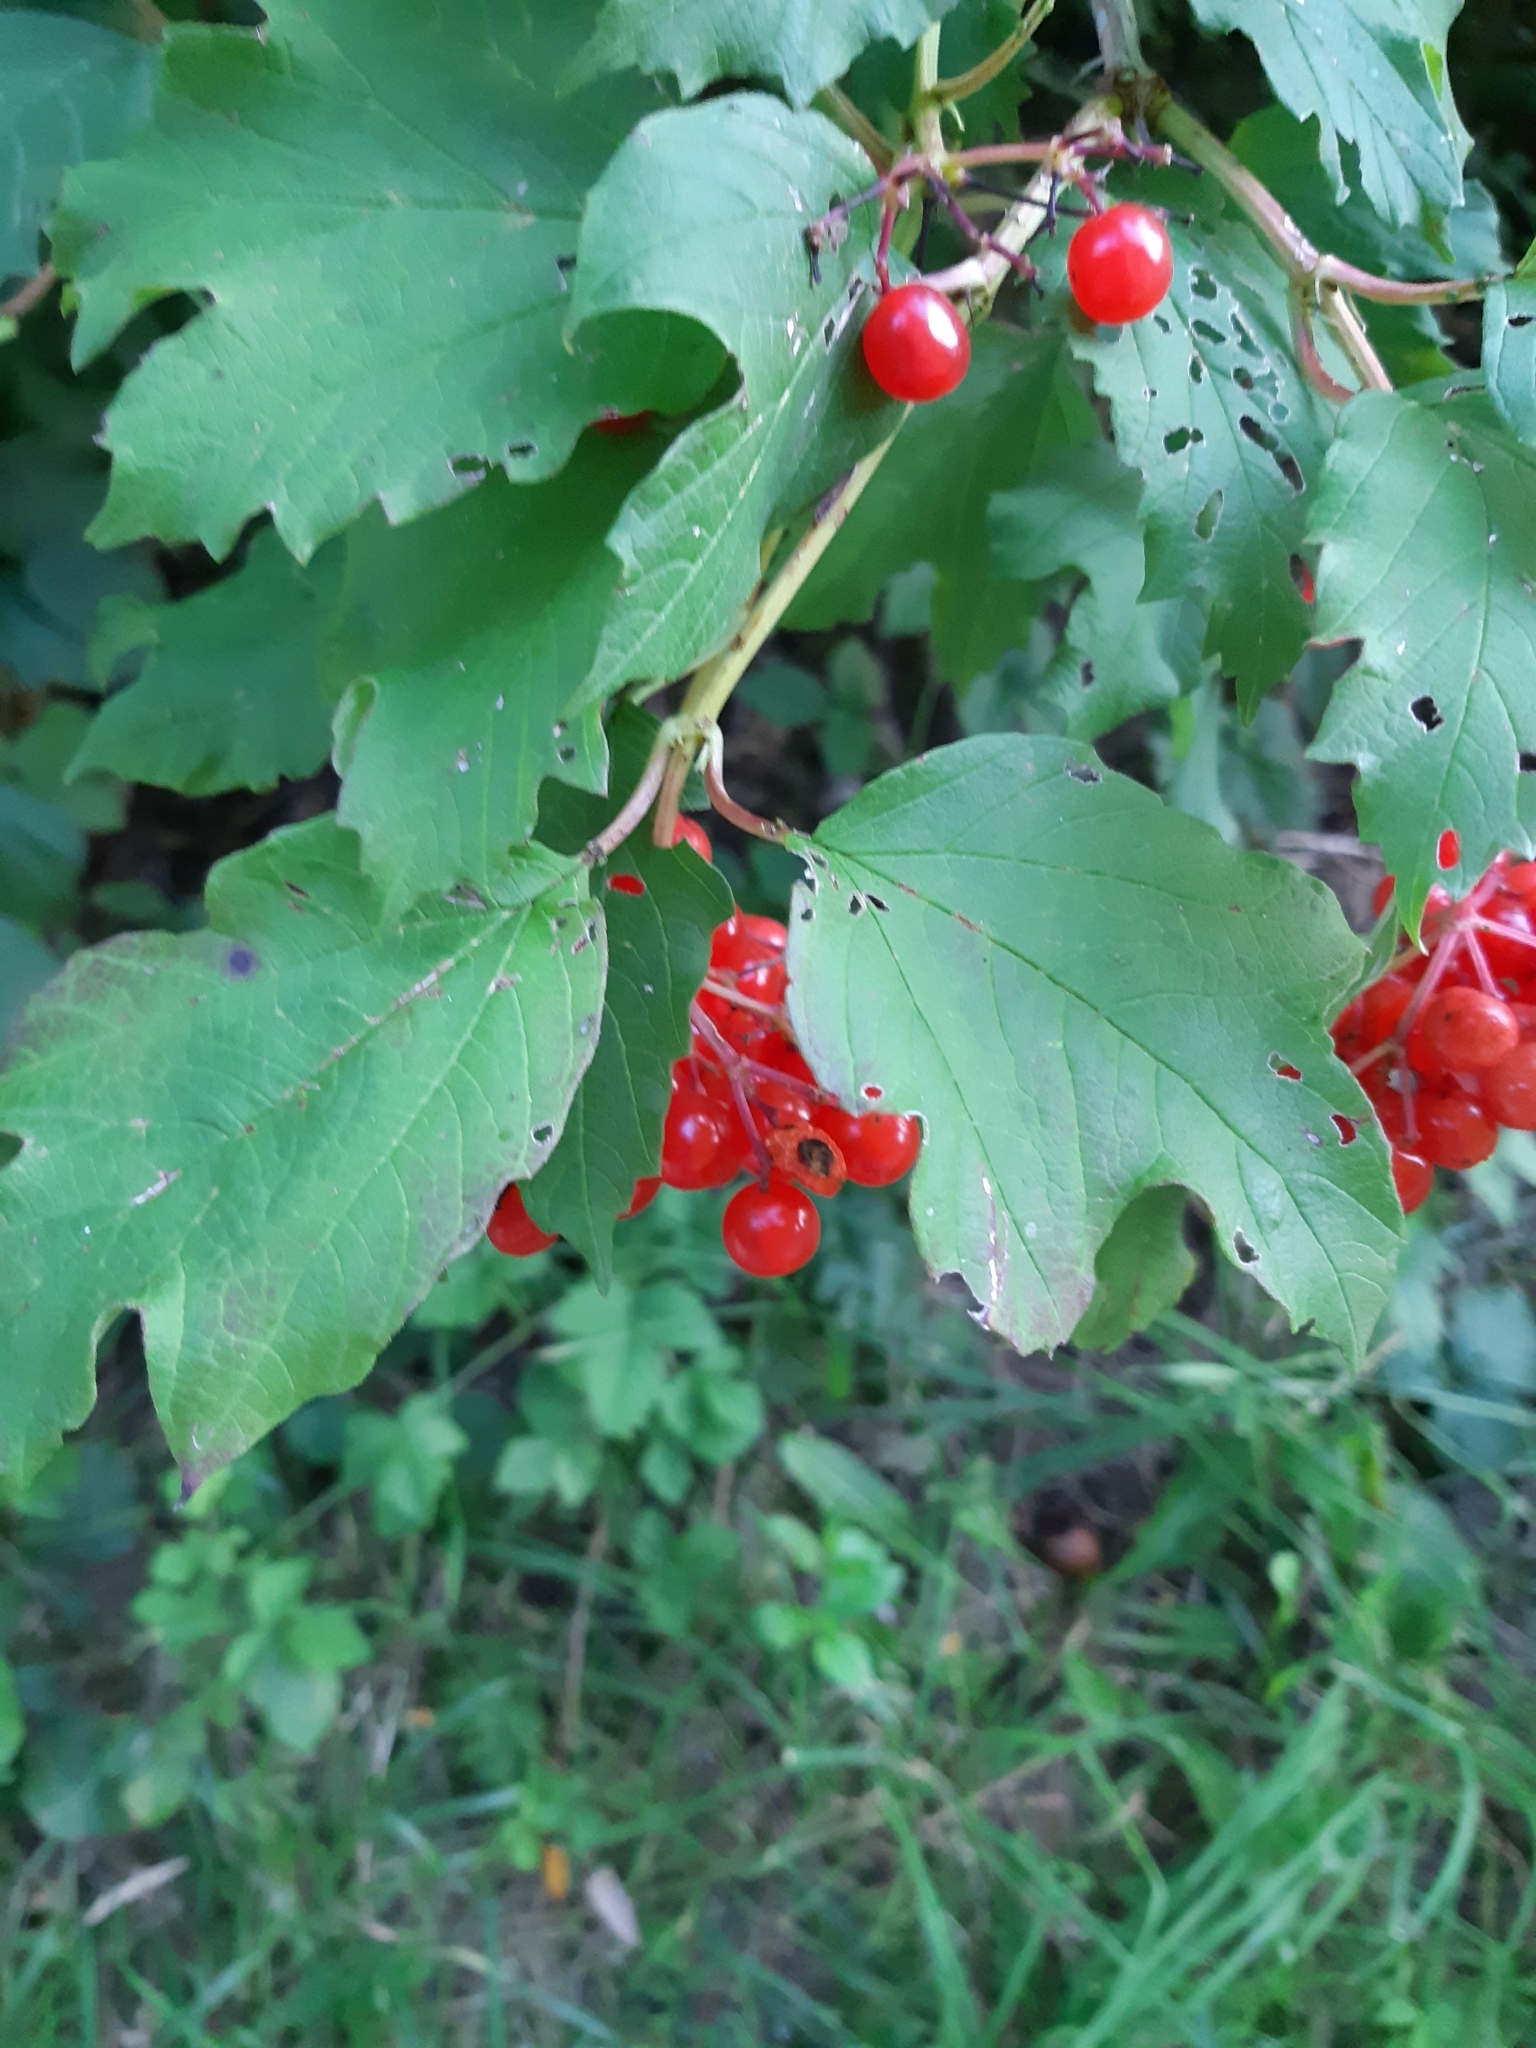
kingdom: Plantae
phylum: Tracheophyta
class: Magnoliopsida
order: Dipsacales
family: Viburnaceae
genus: Viburnum
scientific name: Viburnum opulus
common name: Guelder-rose
